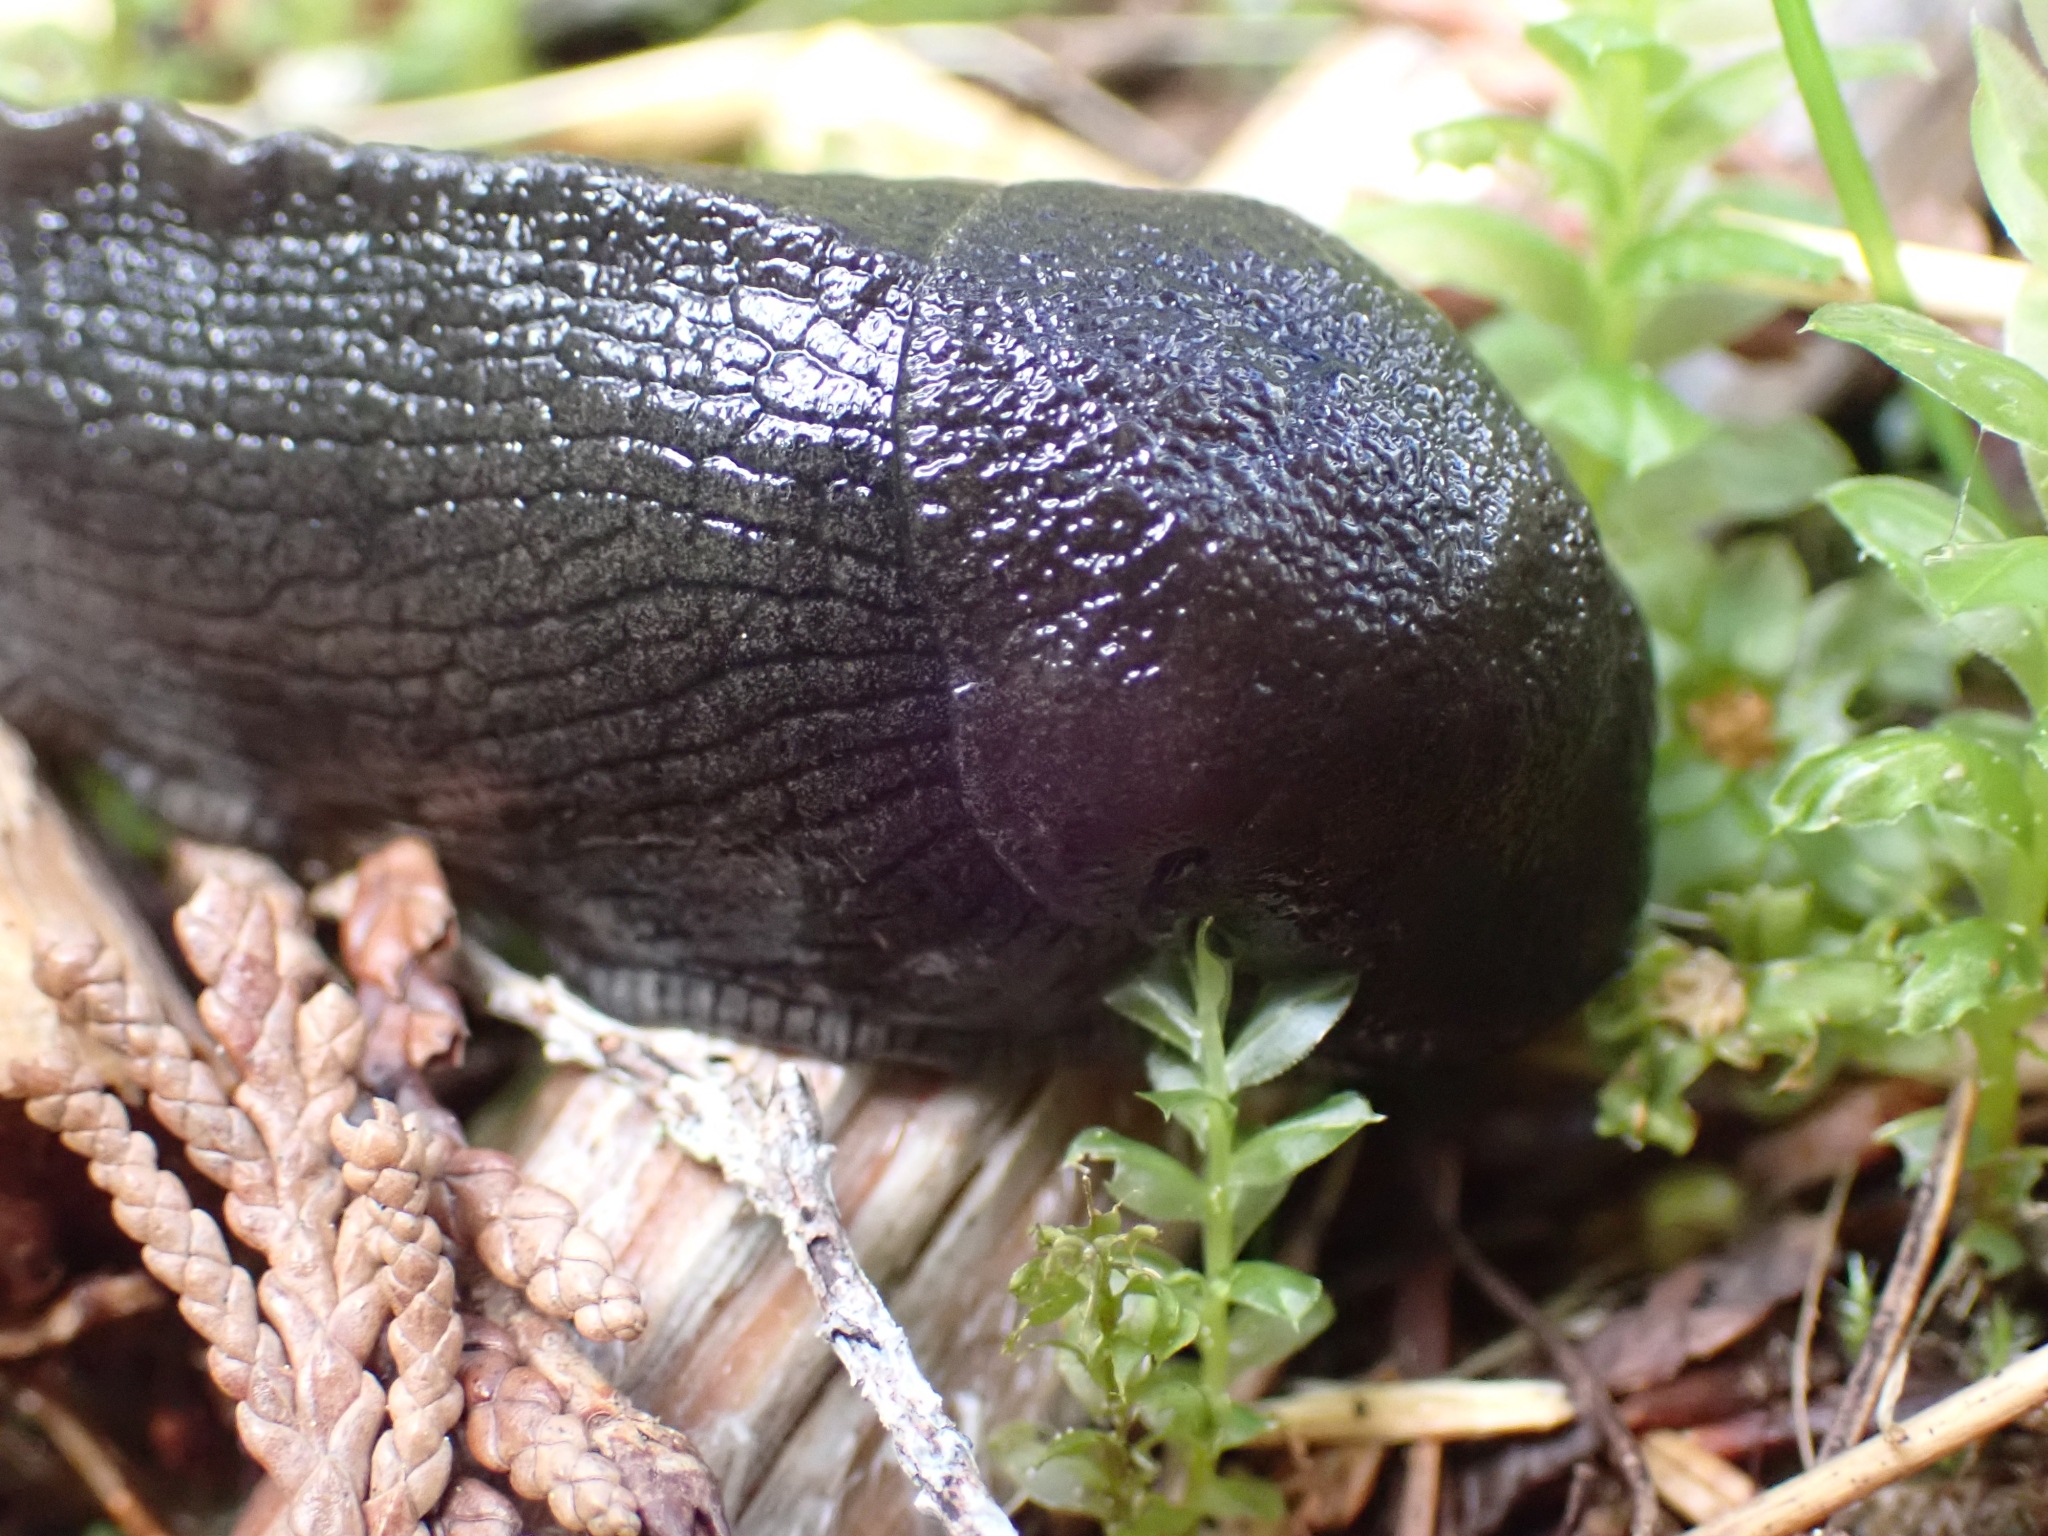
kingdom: Animalia
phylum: Mollusca
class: Gastropoda
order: Stylommatophora
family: Ariolimacidae
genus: Ariolimax
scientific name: Ariolimax columbianus
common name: Pacific banana slug
